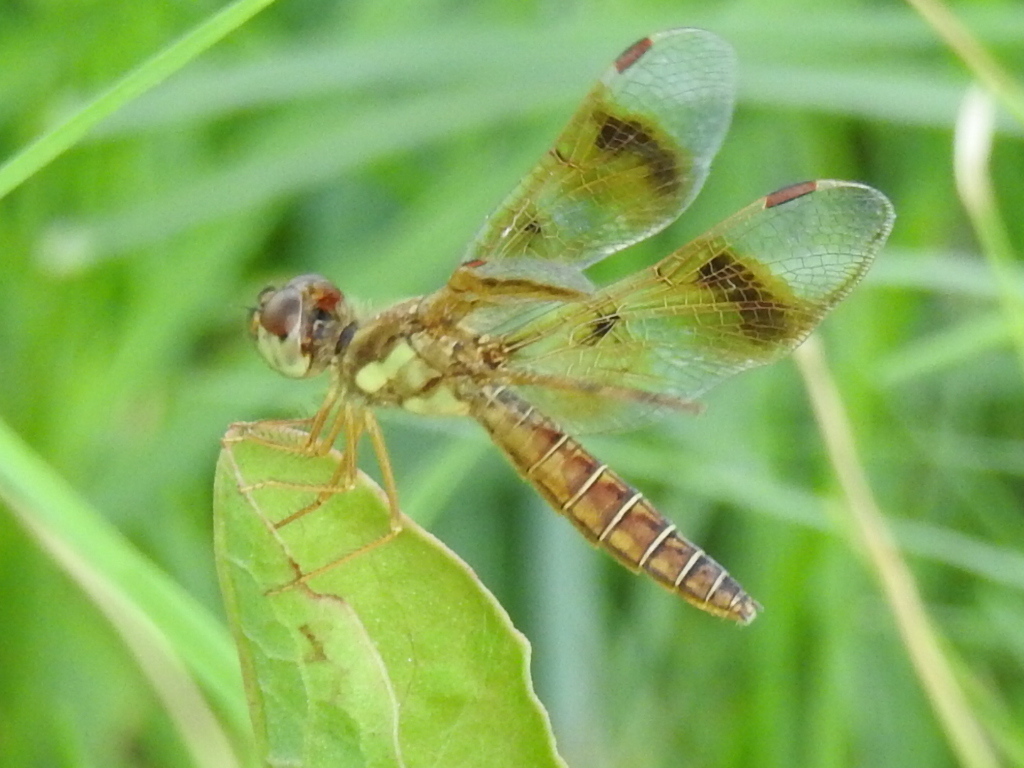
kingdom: Animalia
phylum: Arthropoda
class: Insecta
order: Odonata
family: Libellulidae
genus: Perithemis
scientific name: Perithemis tenera
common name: Eastern amberwing
